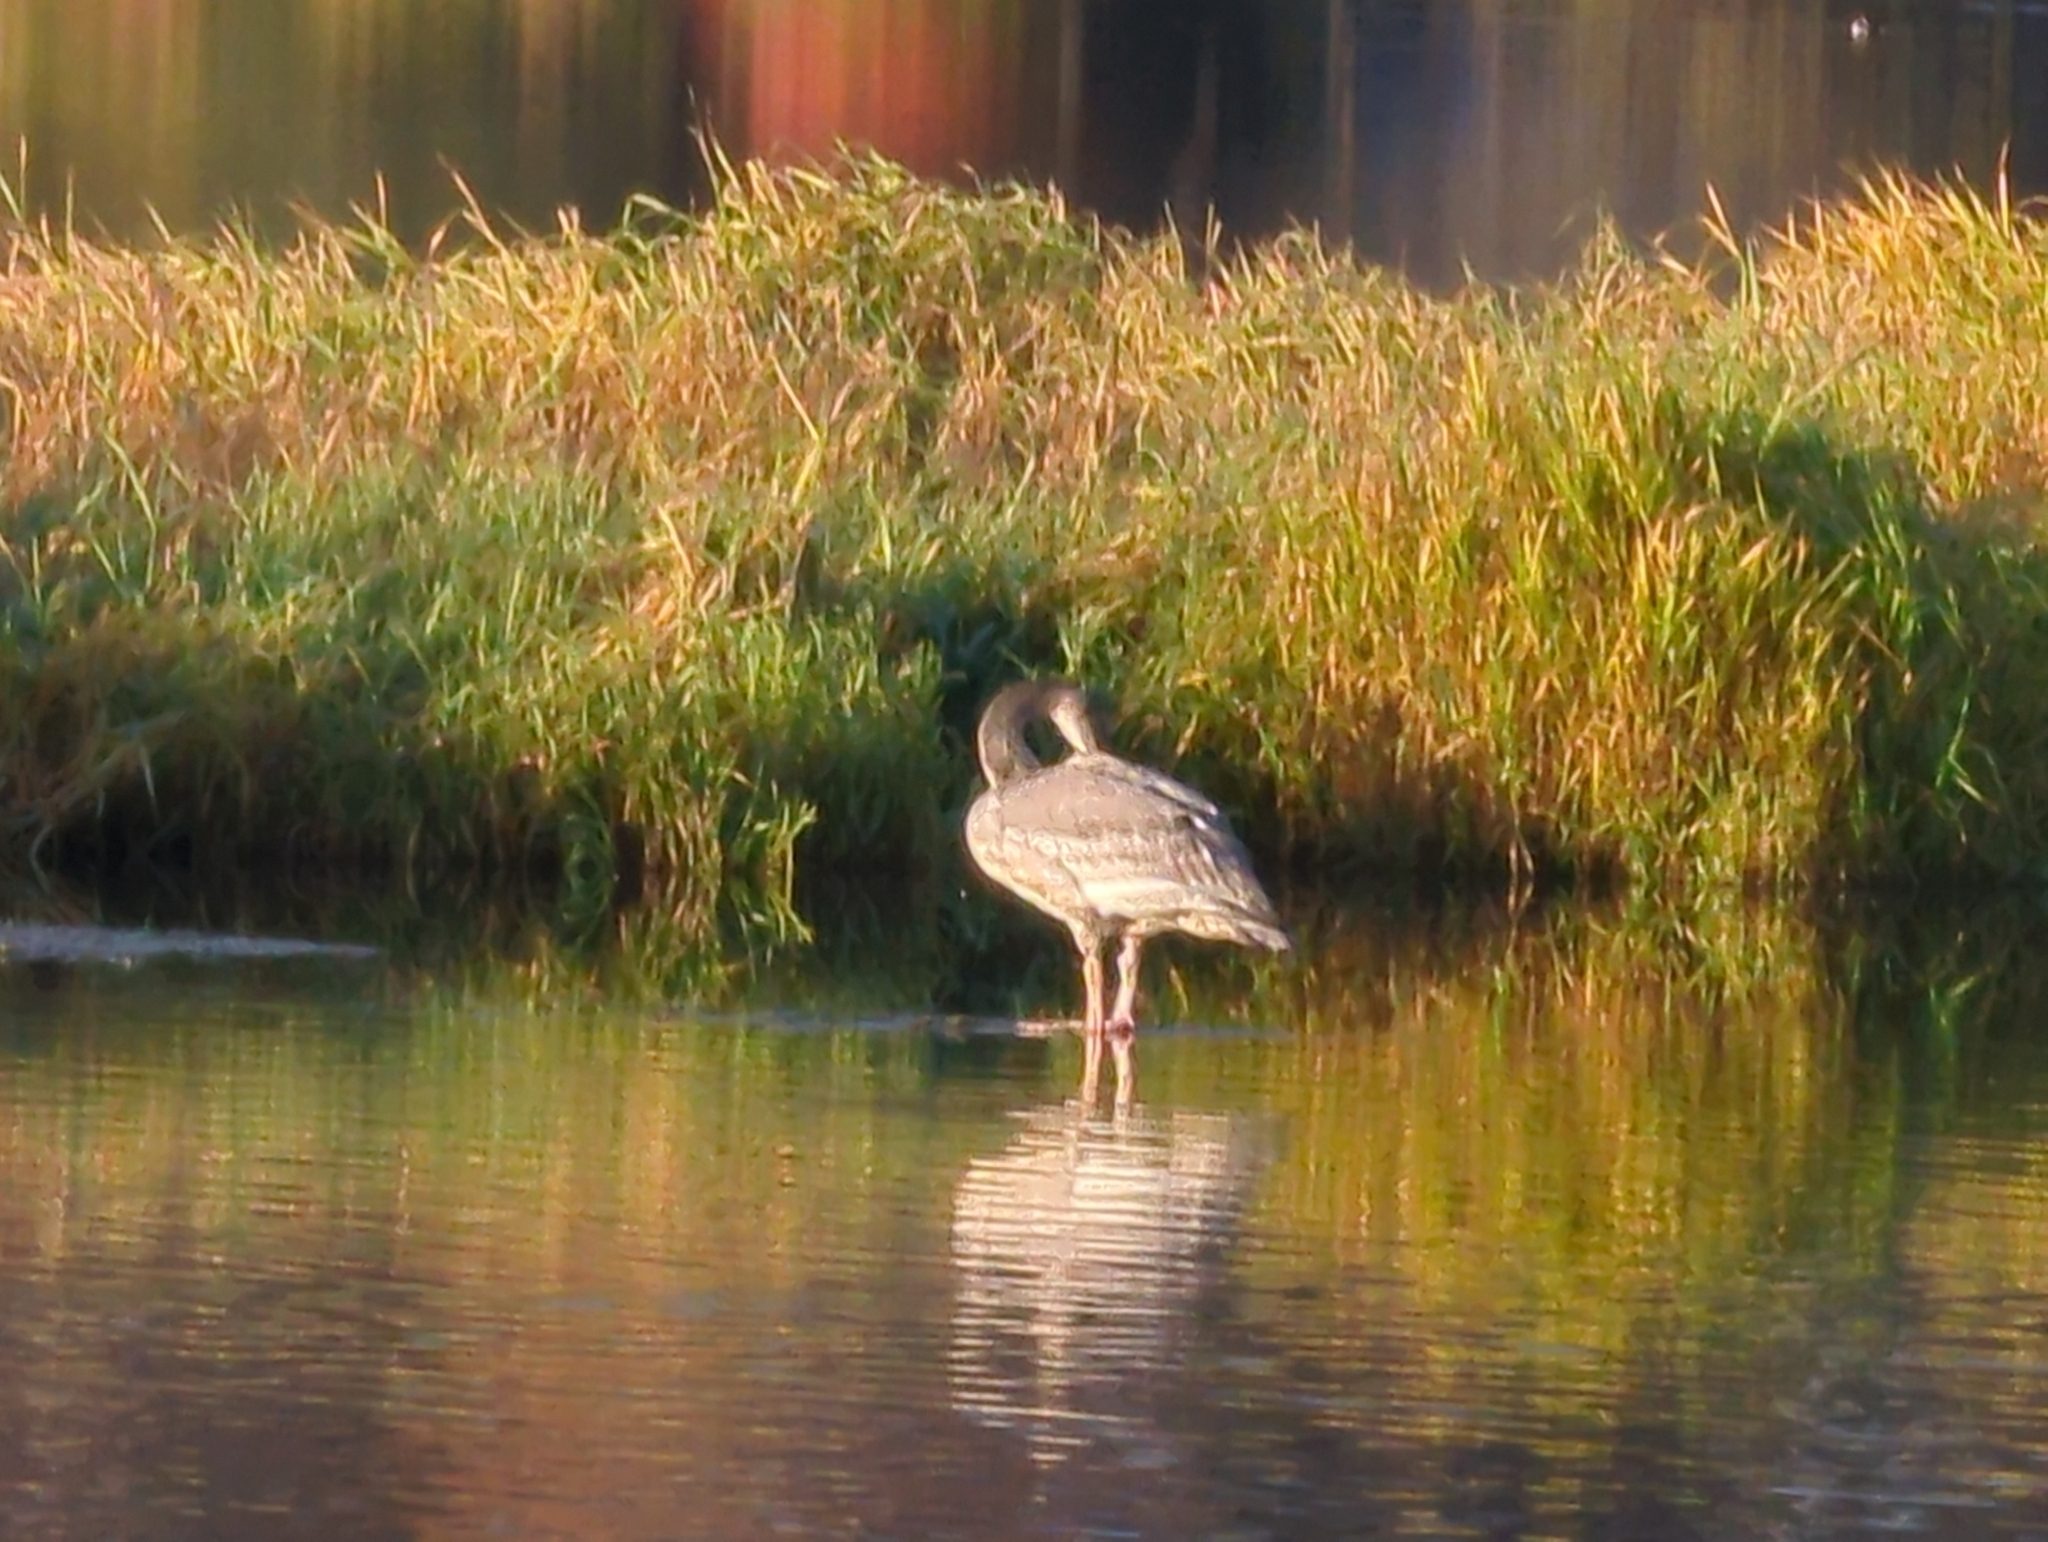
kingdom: Animalia
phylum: Chordata
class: Aves
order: Anseriformes
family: Anatidae
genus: Cygnus
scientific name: Cygnus buccinator
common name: Trumpeter swan
